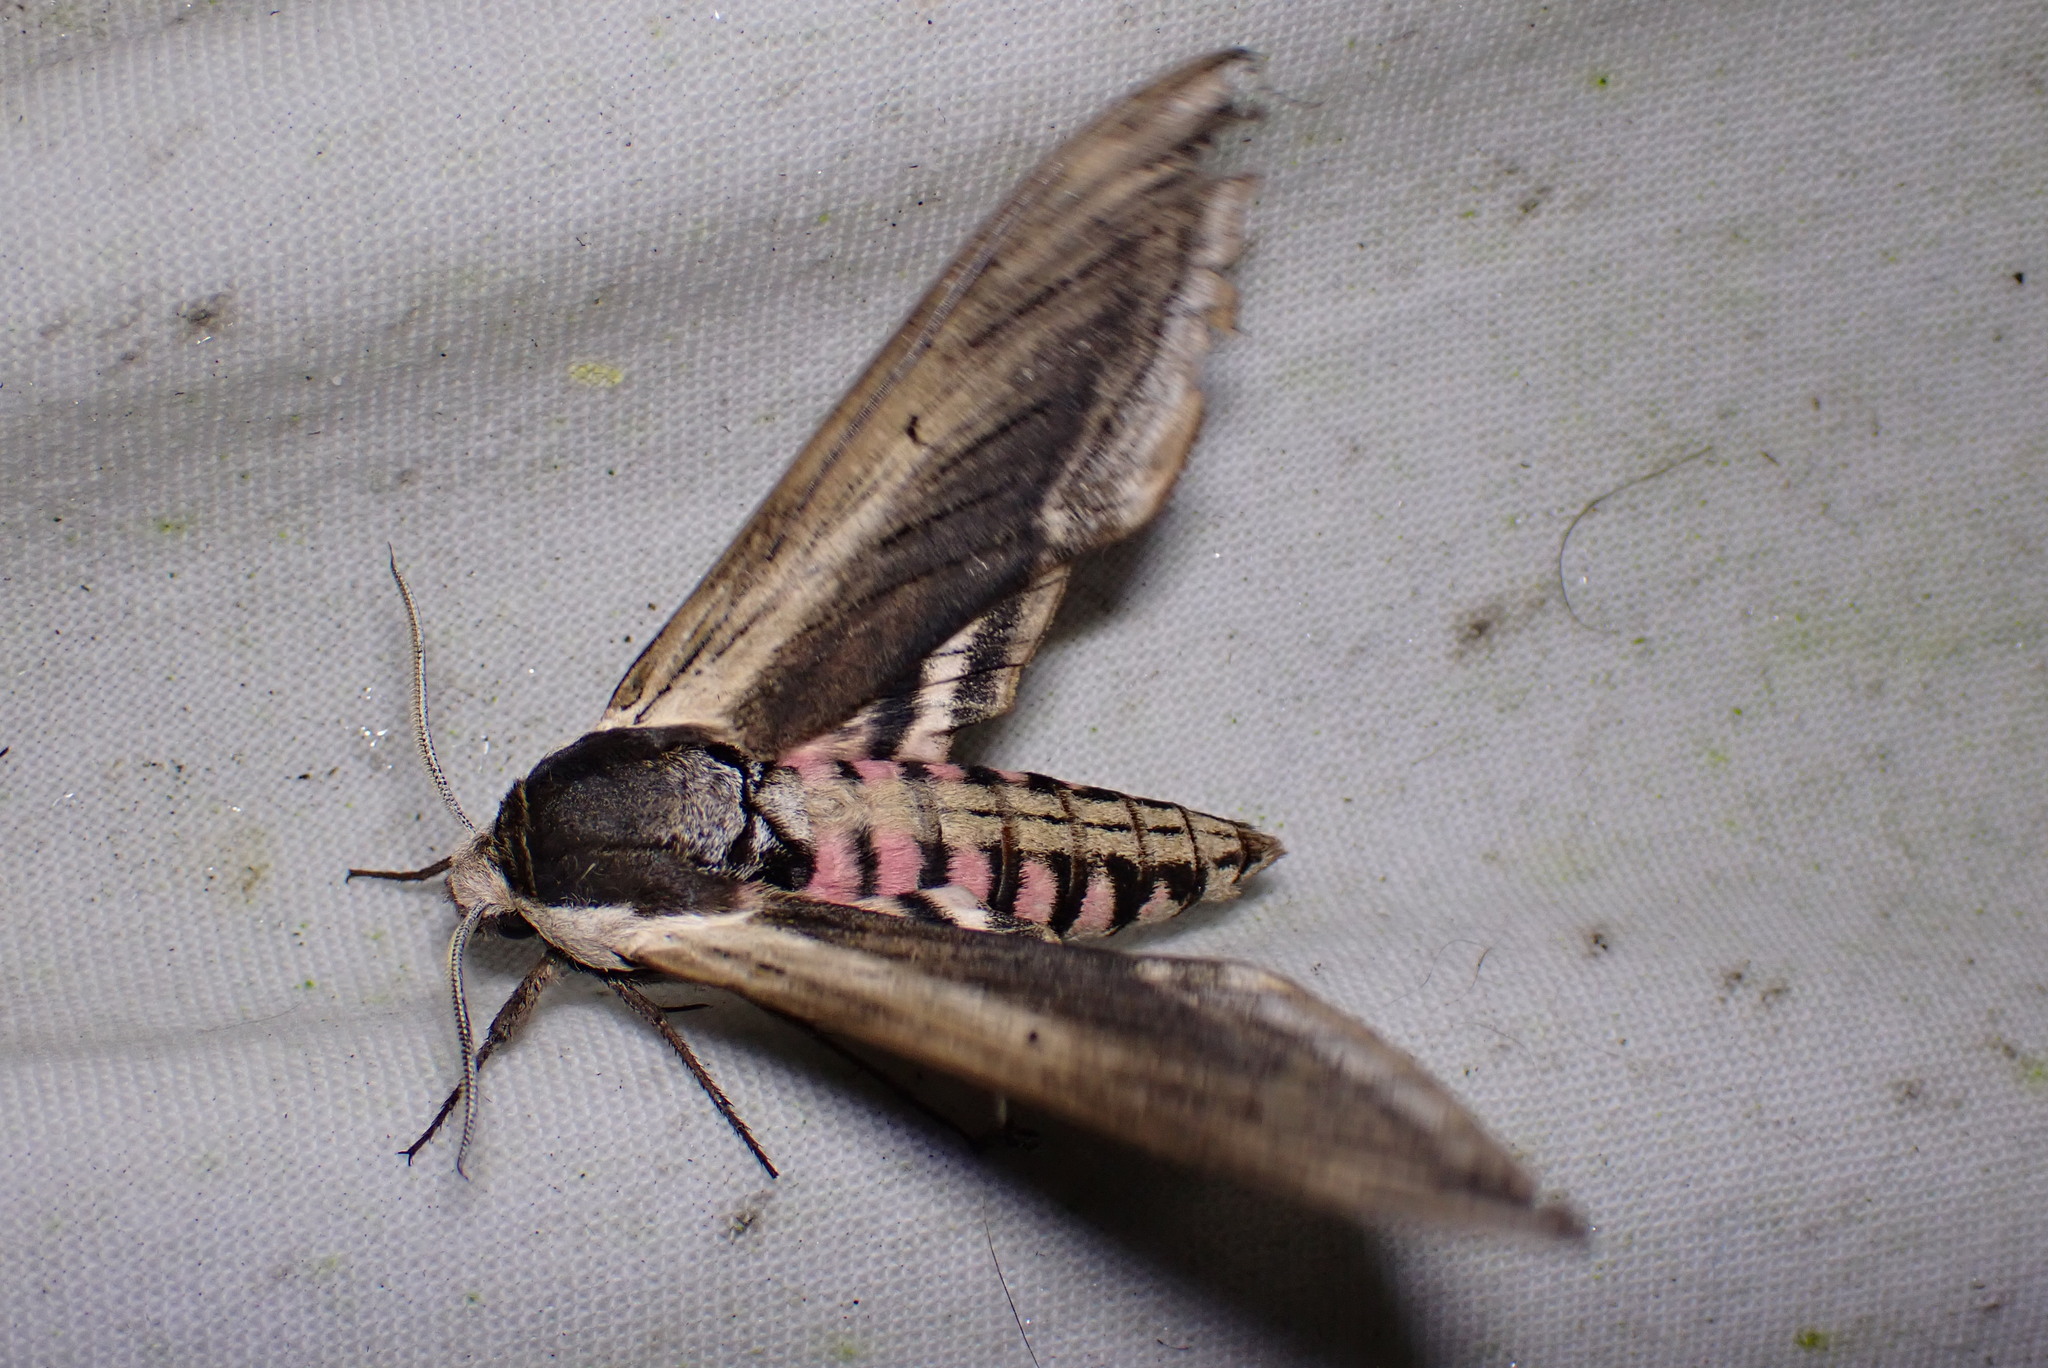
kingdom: Animalia
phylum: Arthropoda
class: Insecta
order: Lepidoptera
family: Sphingidae
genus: Sphinx
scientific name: Sphinx ligustri
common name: Privet hawk-moth
